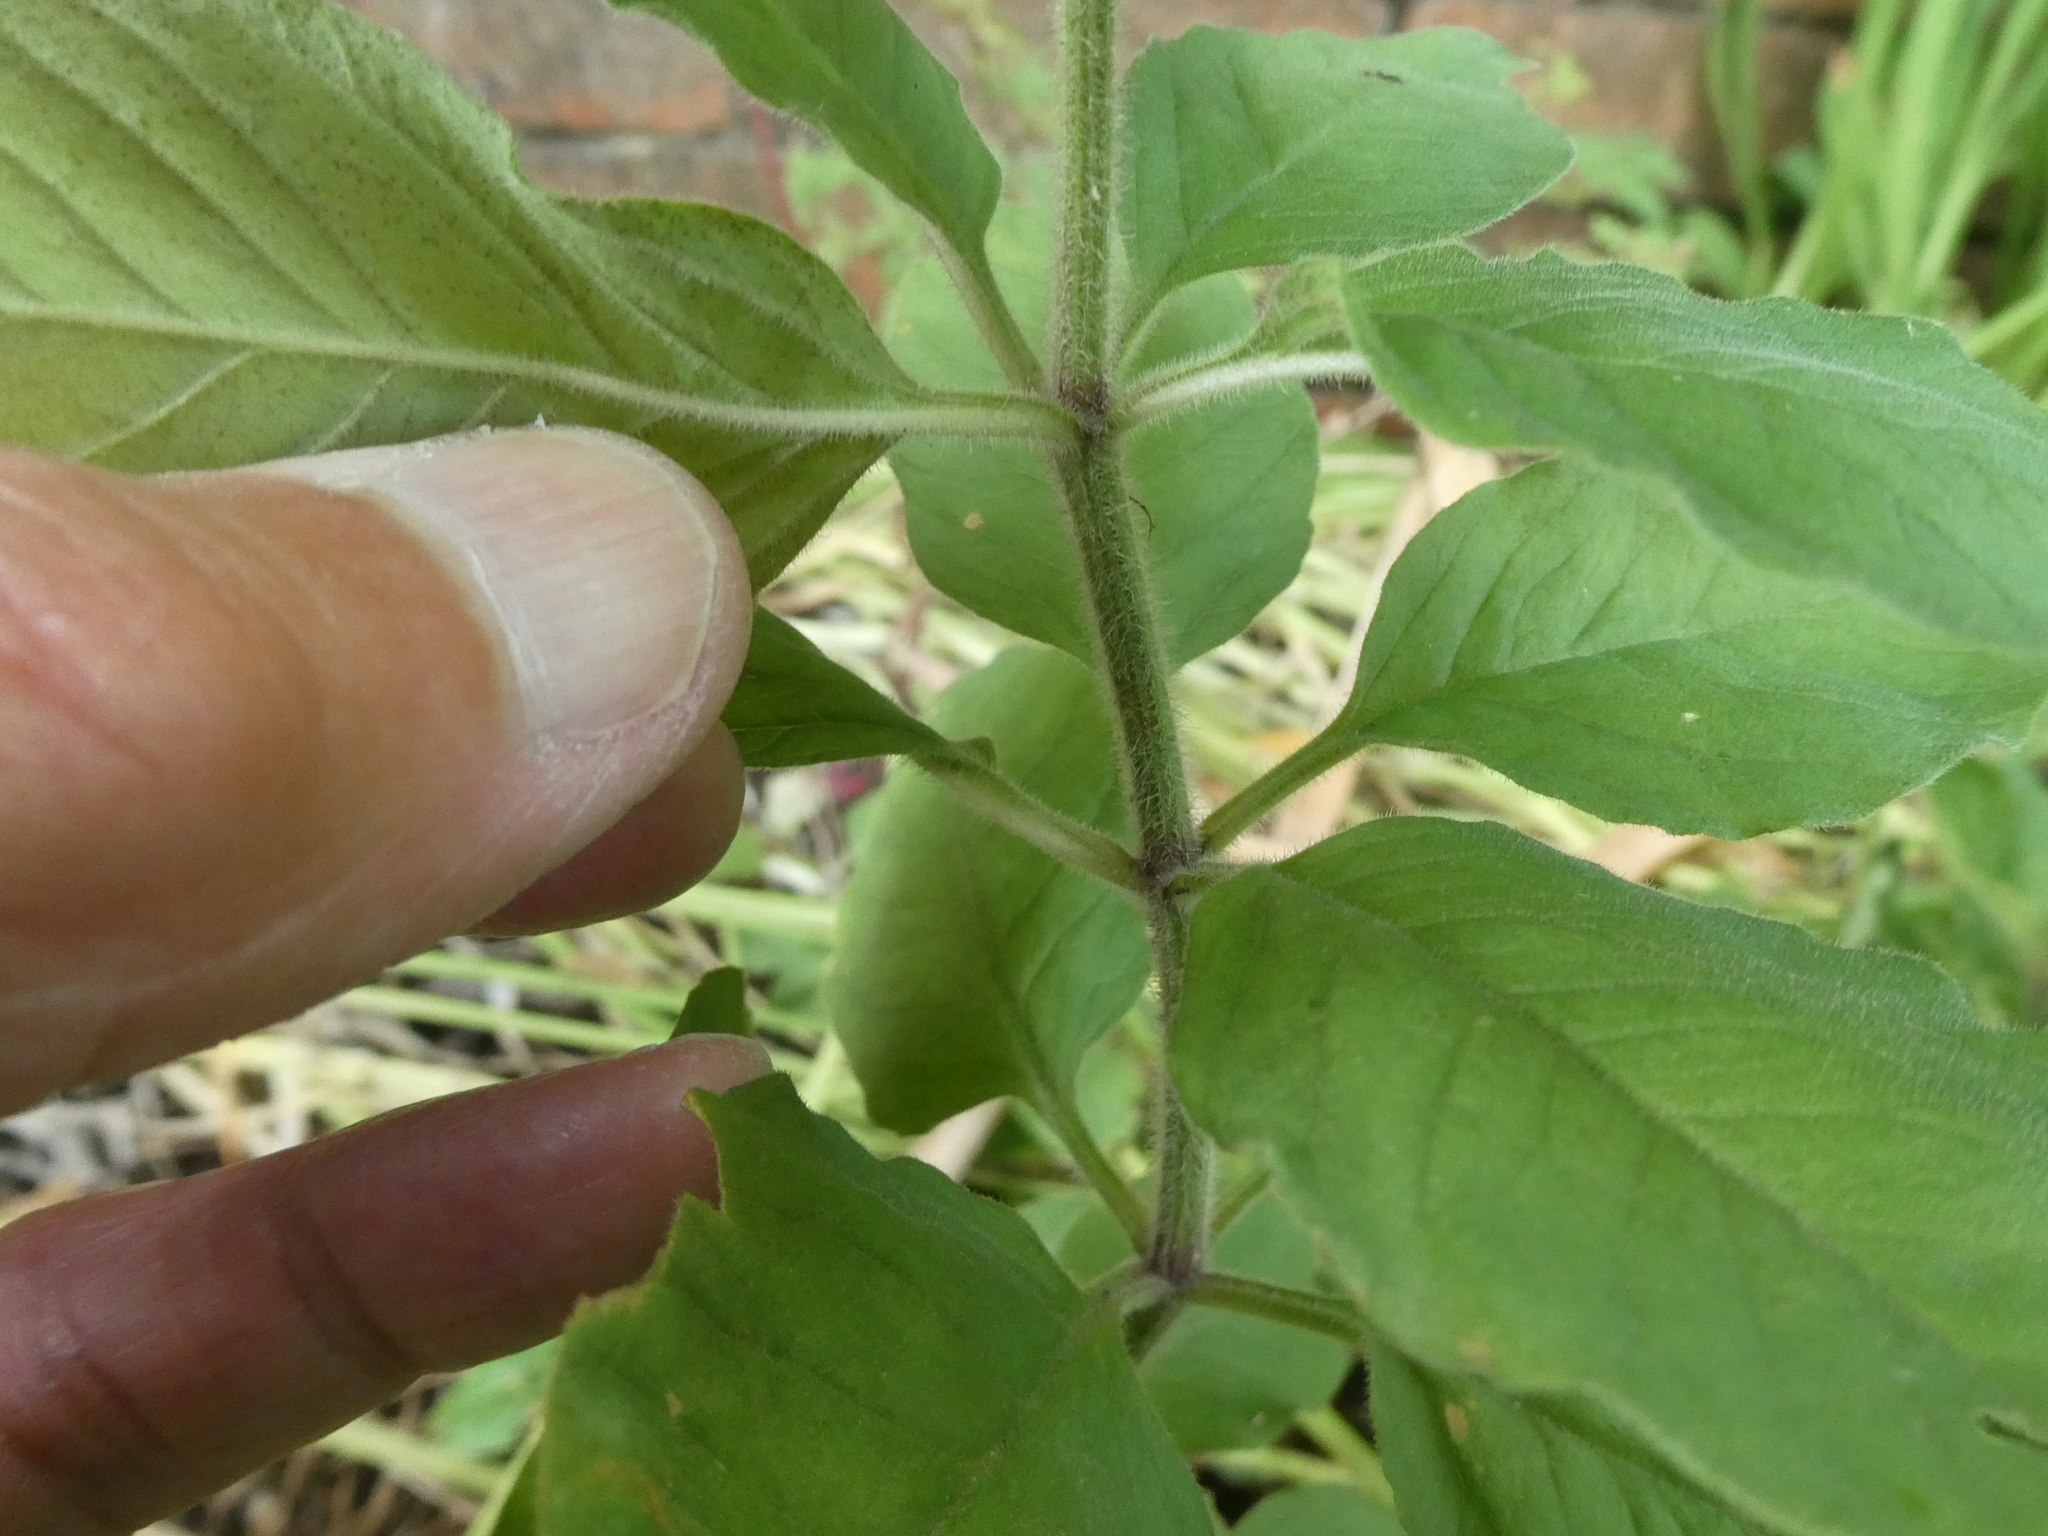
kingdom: Plantae
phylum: Tracheophyta
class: Magnoliopsida
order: Ericales
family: Primulaceae
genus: Lysimachia
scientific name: Lysimachia punctata
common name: Dotted loosestrife
